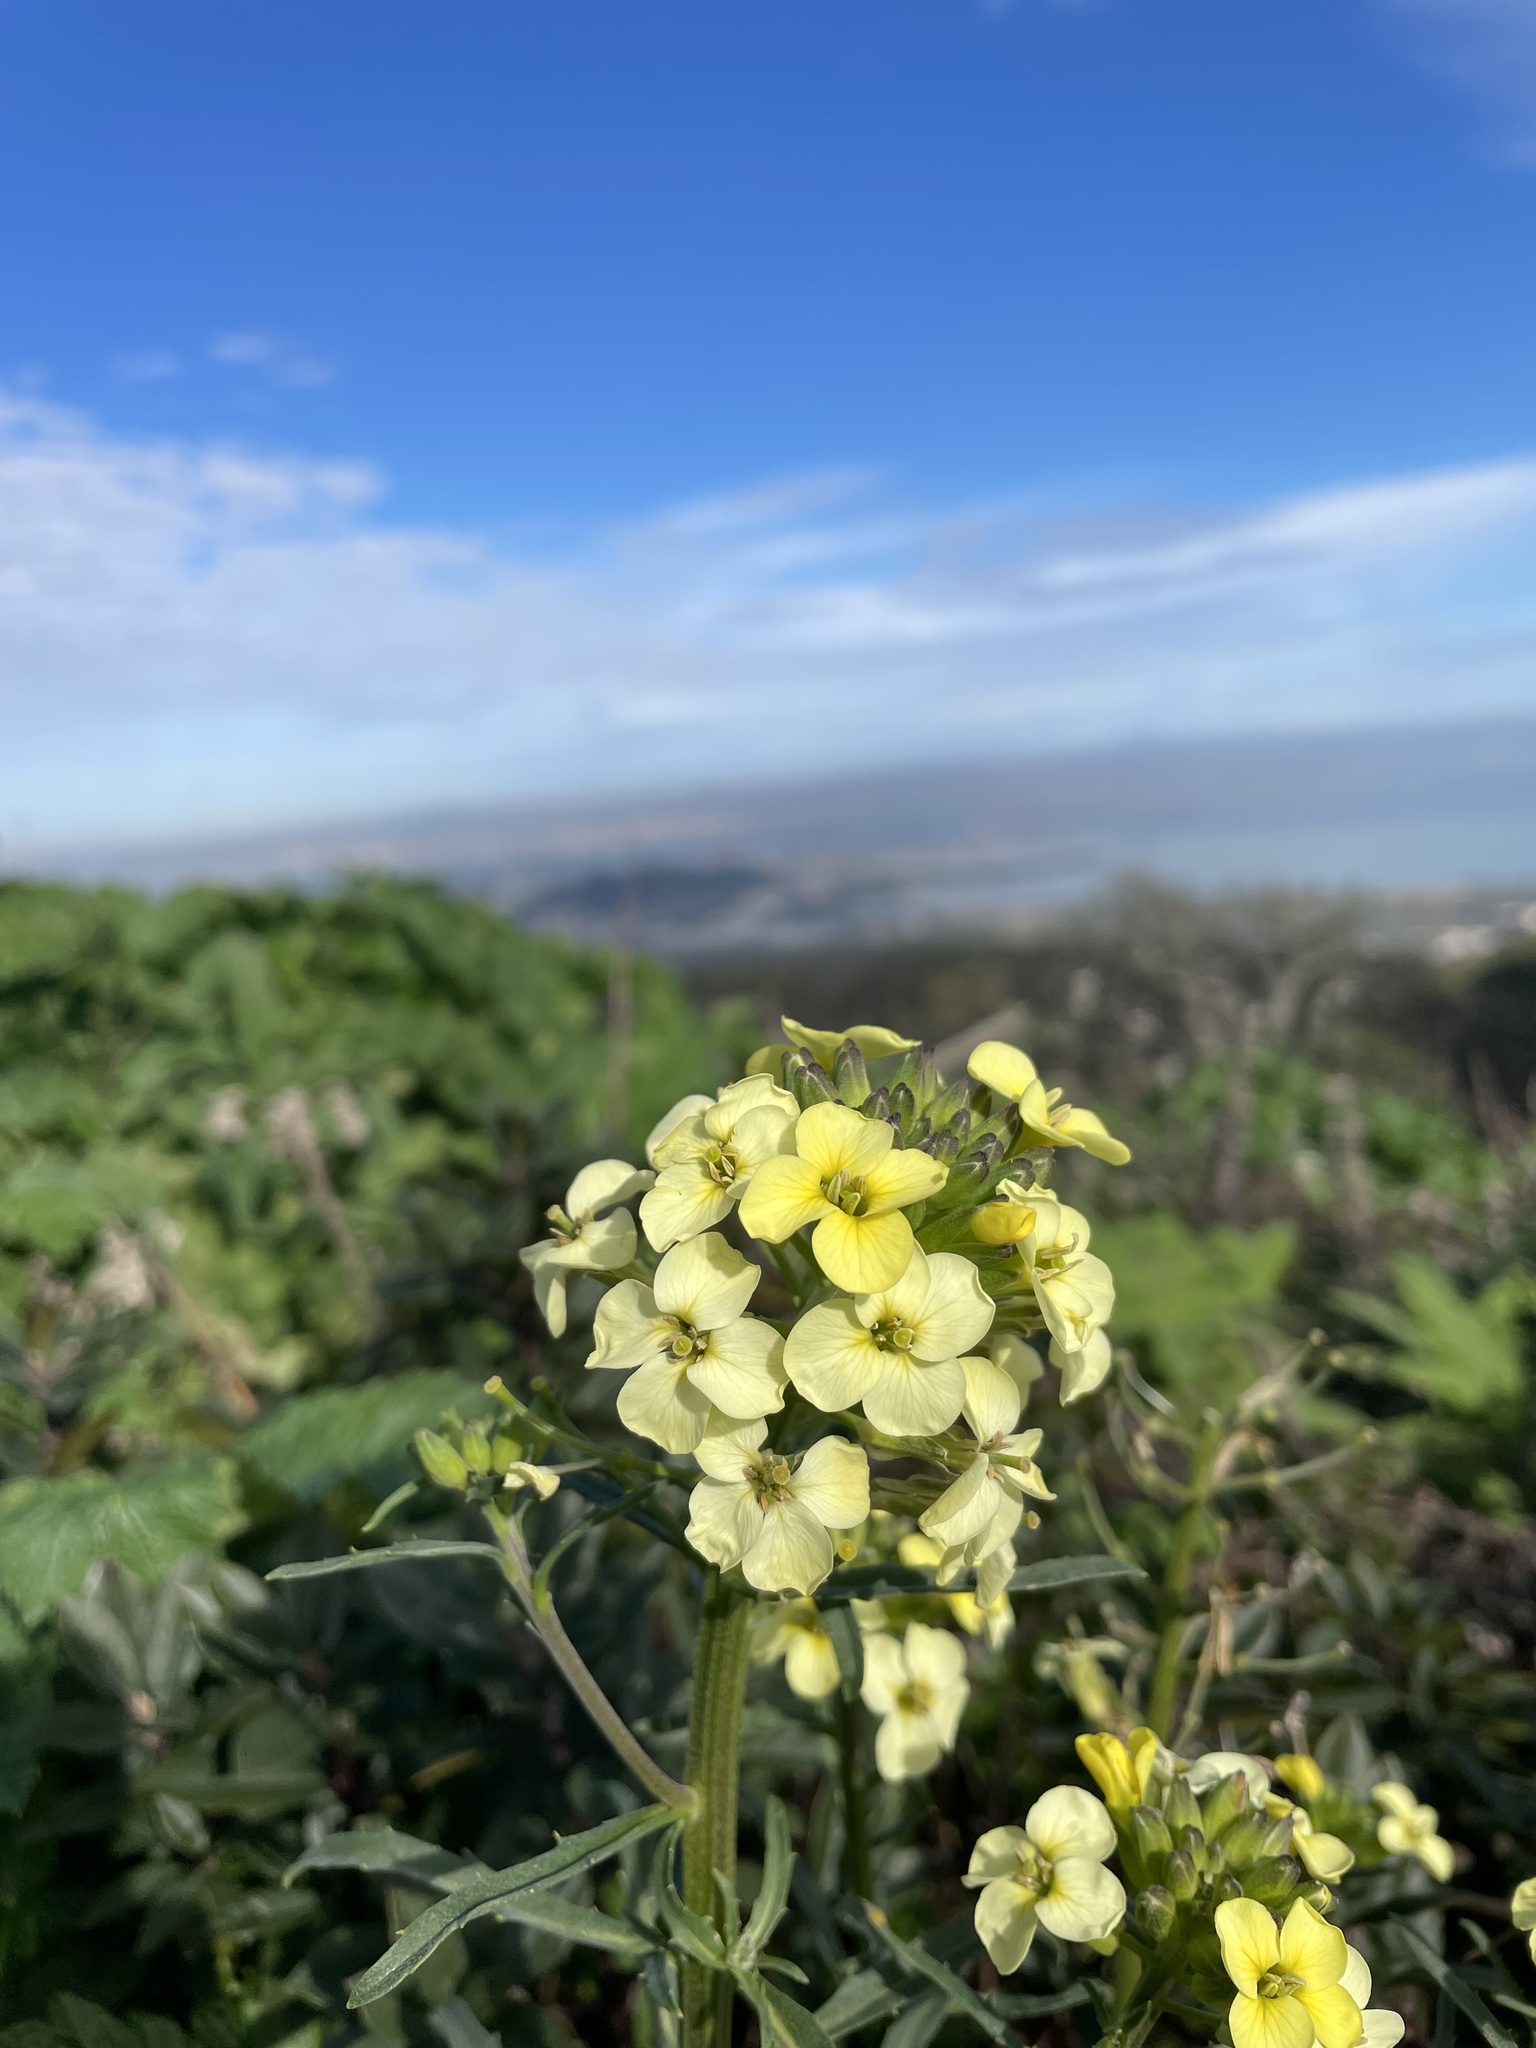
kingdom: Plantae
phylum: Tracheophyta
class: Magnoliopsida
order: Brassicales
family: Brassicaceae
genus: Erysimum
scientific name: Erysimum franciscanum
